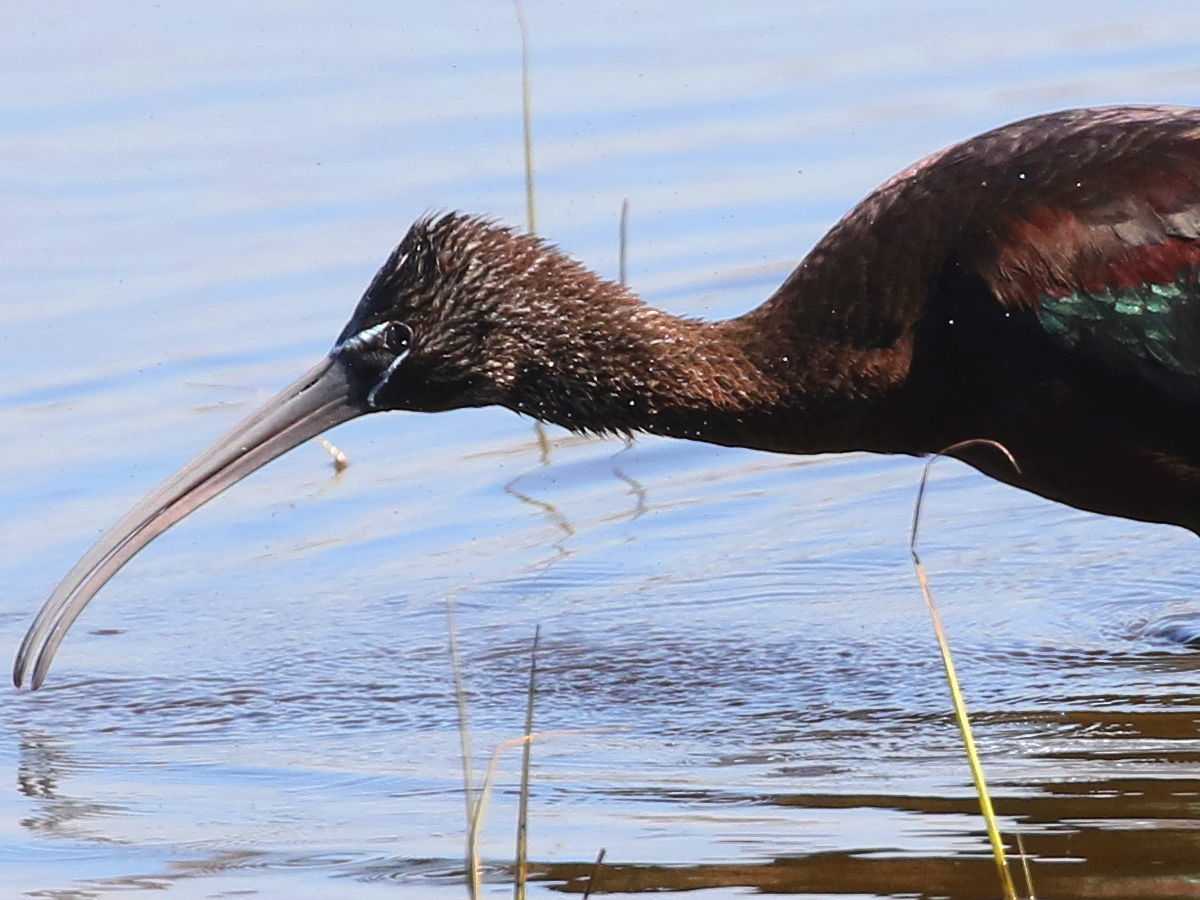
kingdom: Animalia
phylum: Chordata
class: Aves
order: Pelecaniformes
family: Threskiornithidae
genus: Plegadis
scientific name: Plegadis falcinellus
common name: Glossy ibis
